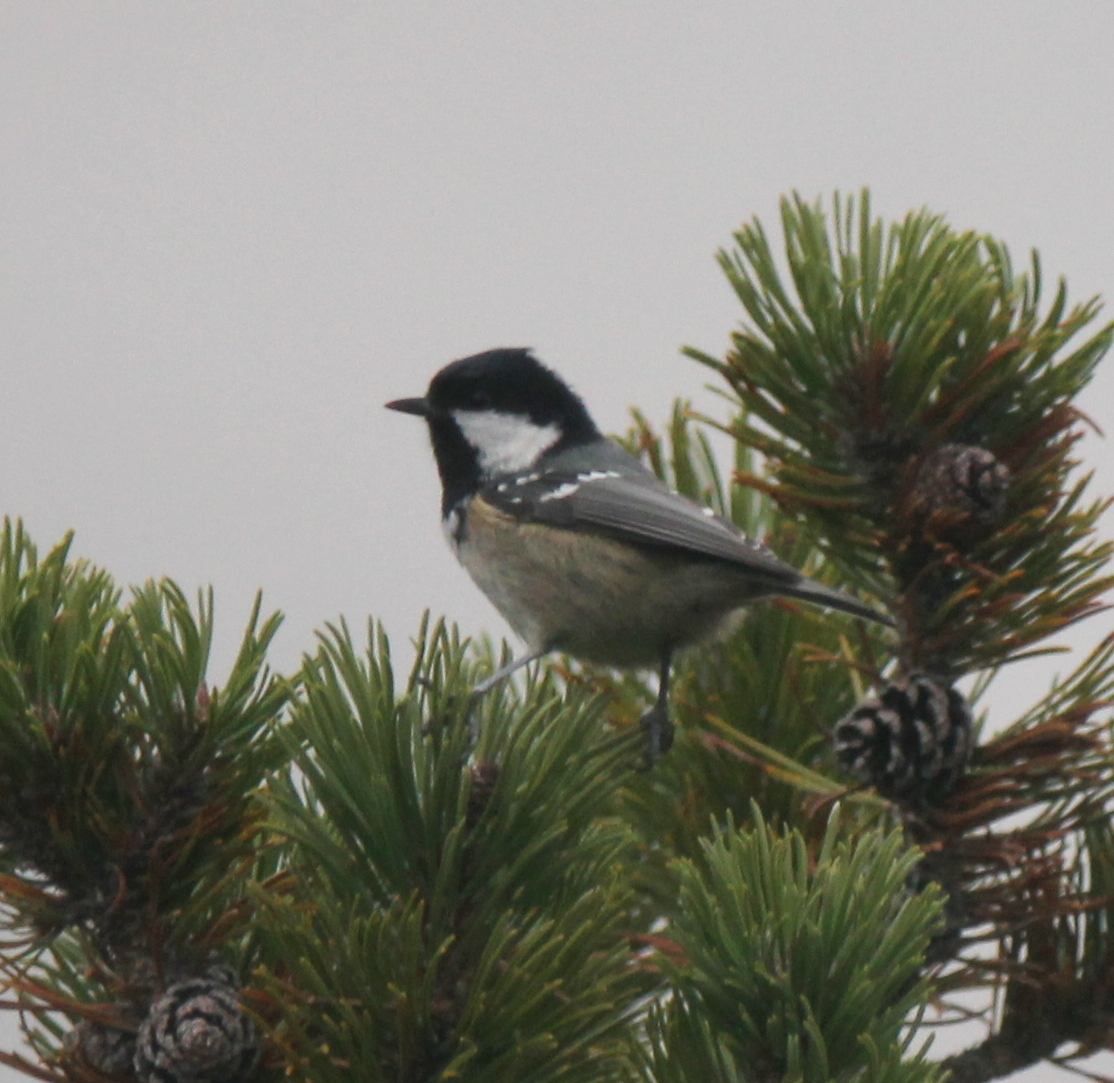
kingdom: Animalia
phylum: Chordata
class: Aves
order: Passeriformes
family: Paridae
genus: Periparus
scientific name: Periparus ater
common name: Coal tit
